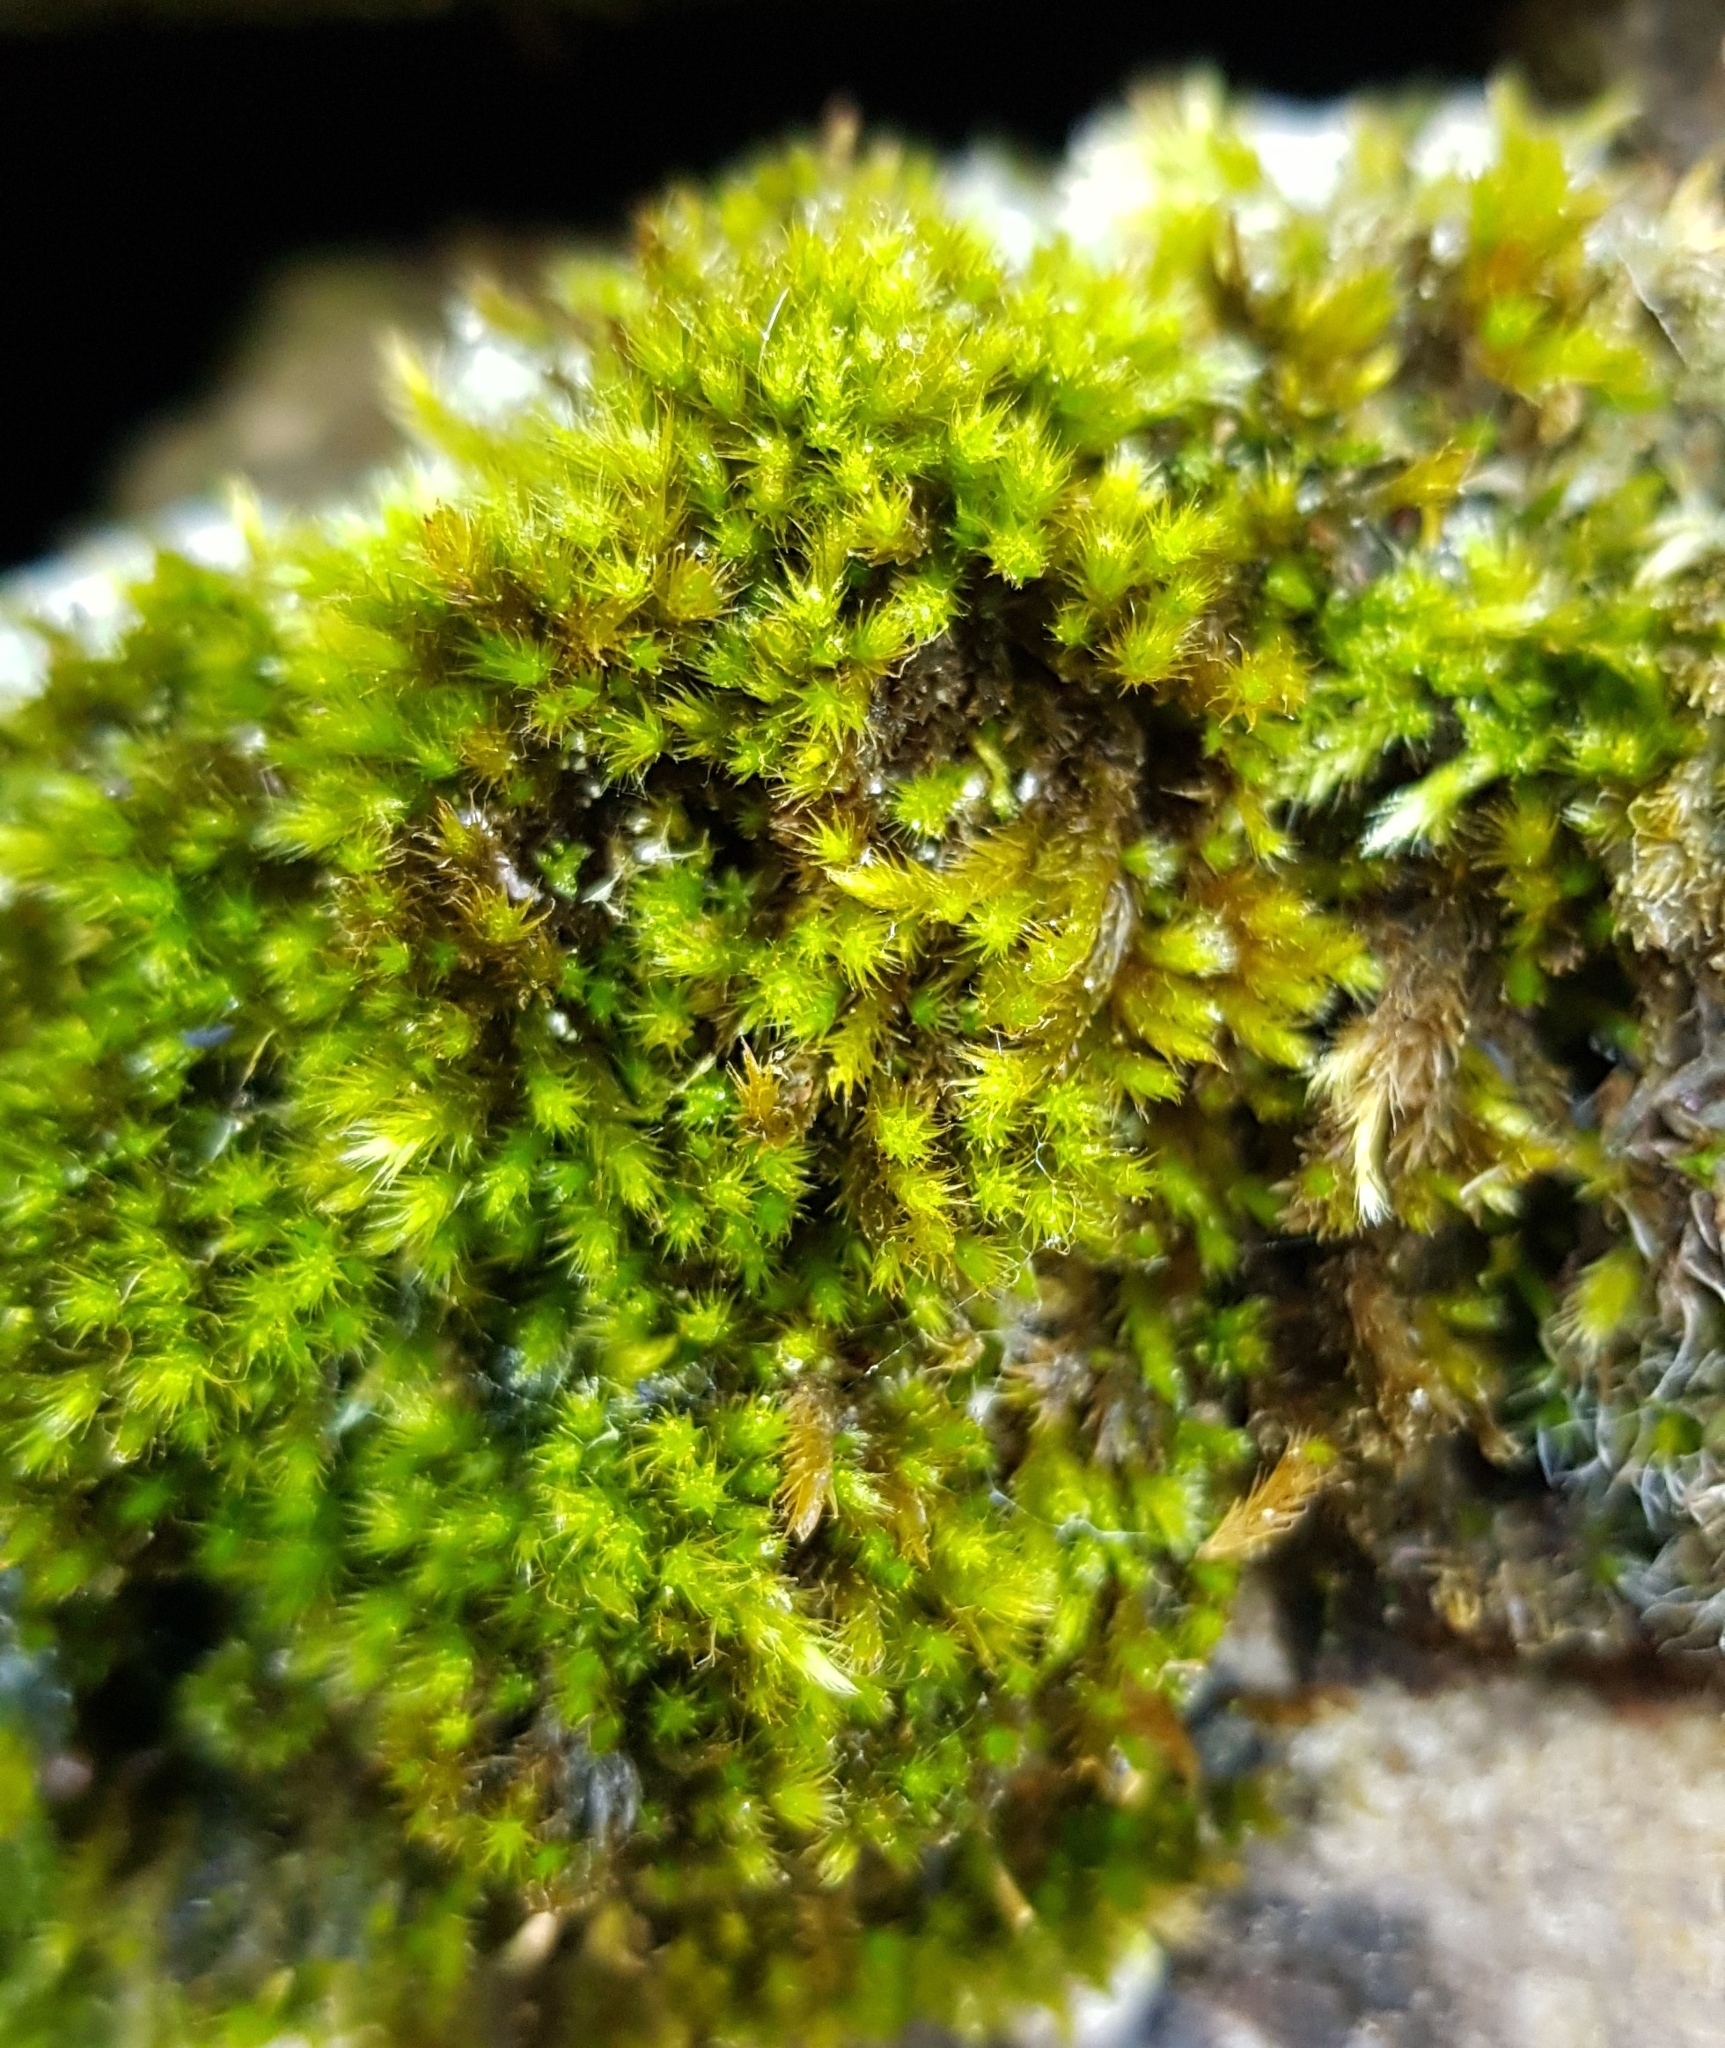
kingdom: Plantae
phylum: Bryophyta
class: Bryopsida
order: Hypnales
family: Brachytheciaceae
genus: Homalothecium
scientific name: Homalothecium sericeum
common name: Silky wall feather-moss
